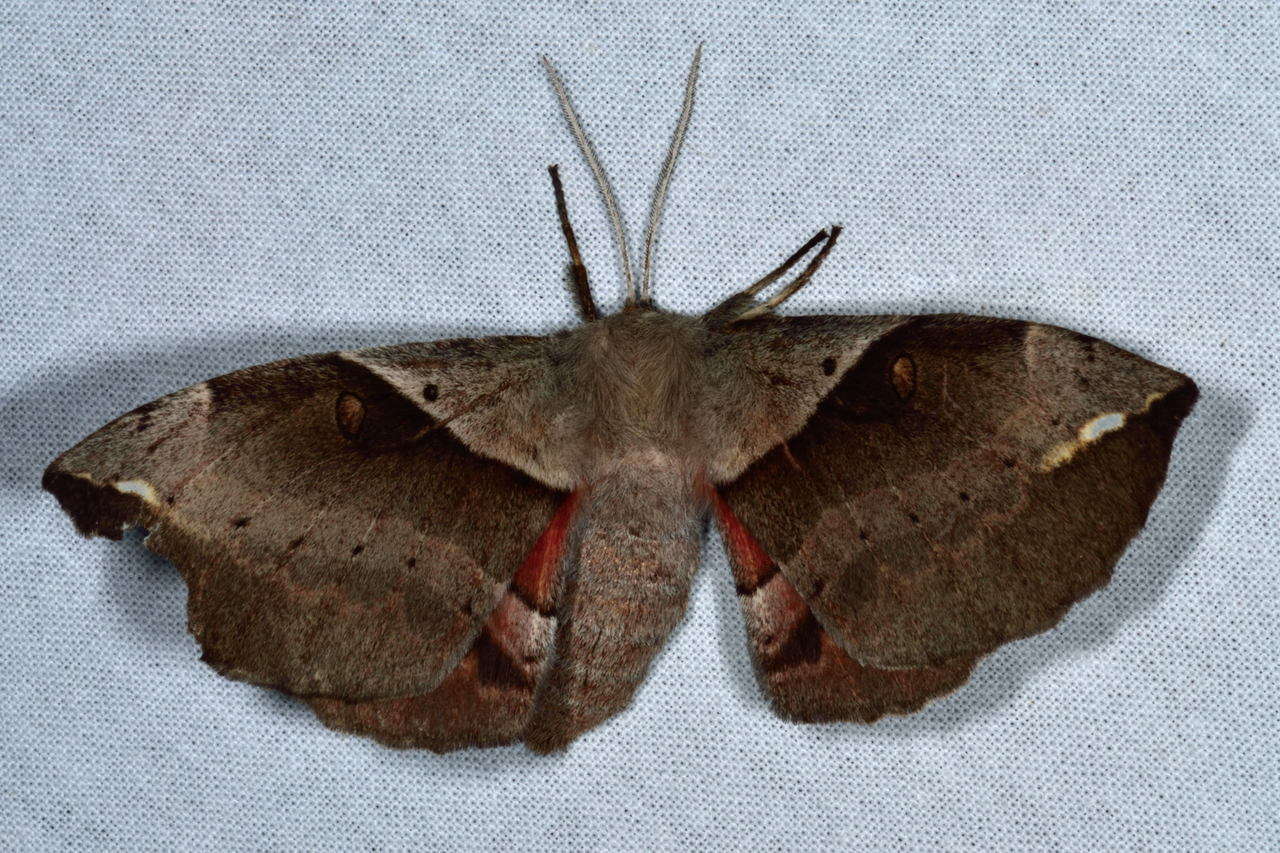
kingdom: Animalia
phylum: Arthropoda
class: Insecta
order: Lepidoptera
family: Anthelidae
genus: Chelepteryx
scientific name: Chelepteryx chalepteryx
